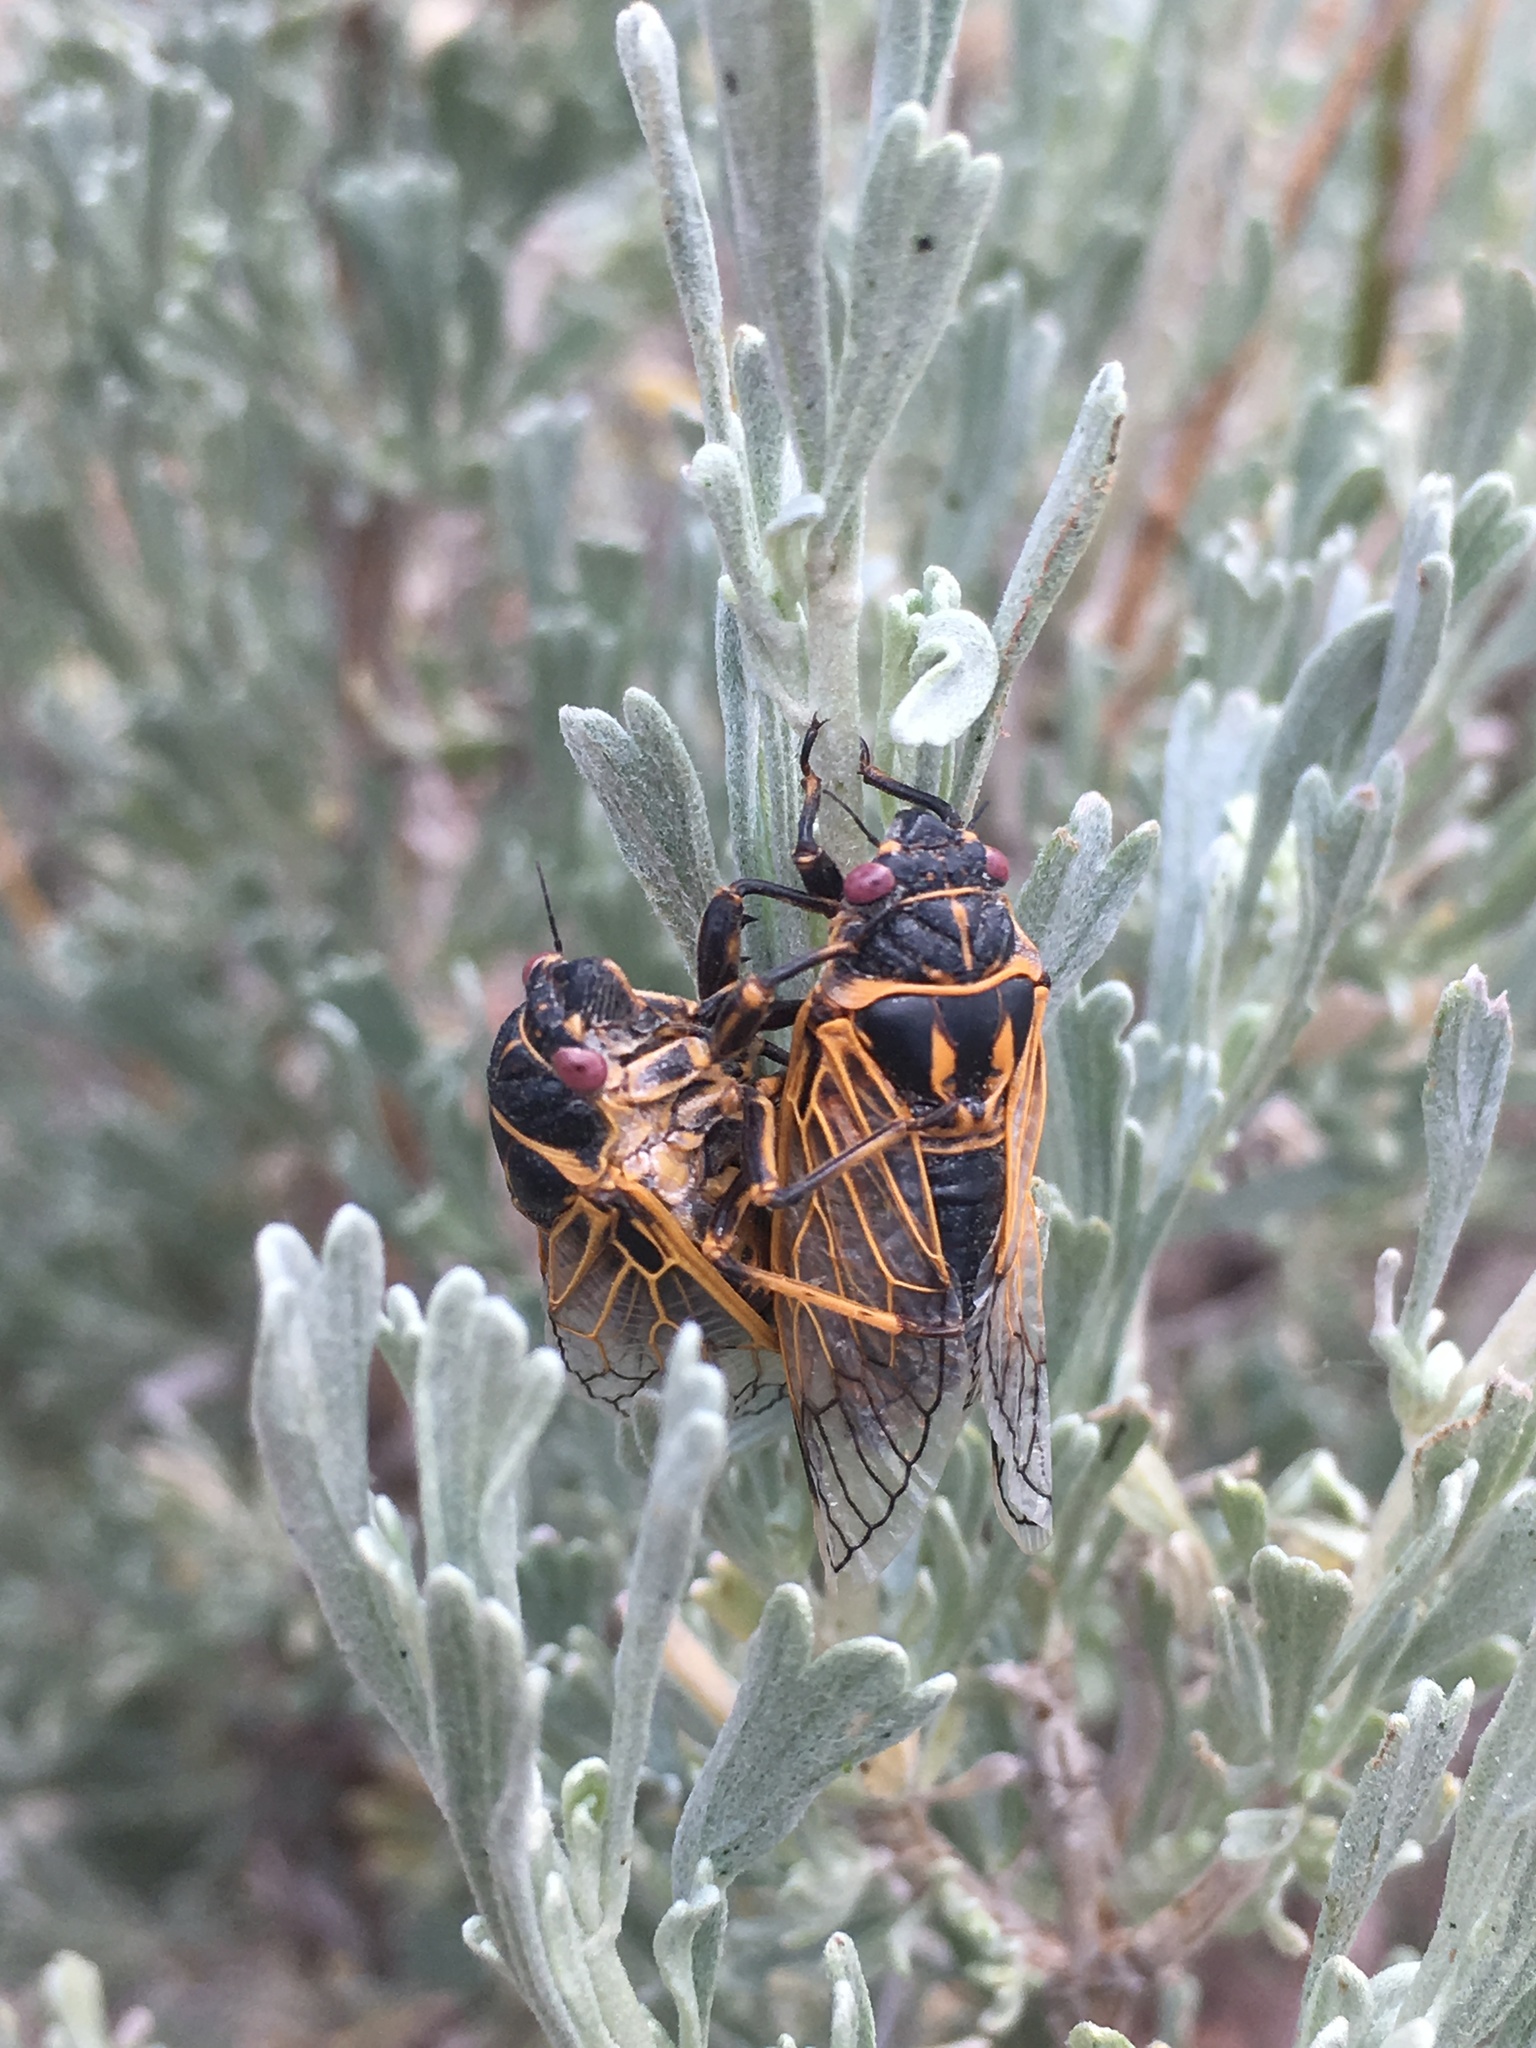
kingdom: Animalia
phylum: Arthropoda
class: Insecta
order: Hemiptera
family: Cicadidae
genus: Okanagana
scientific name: Okanagana synodica
